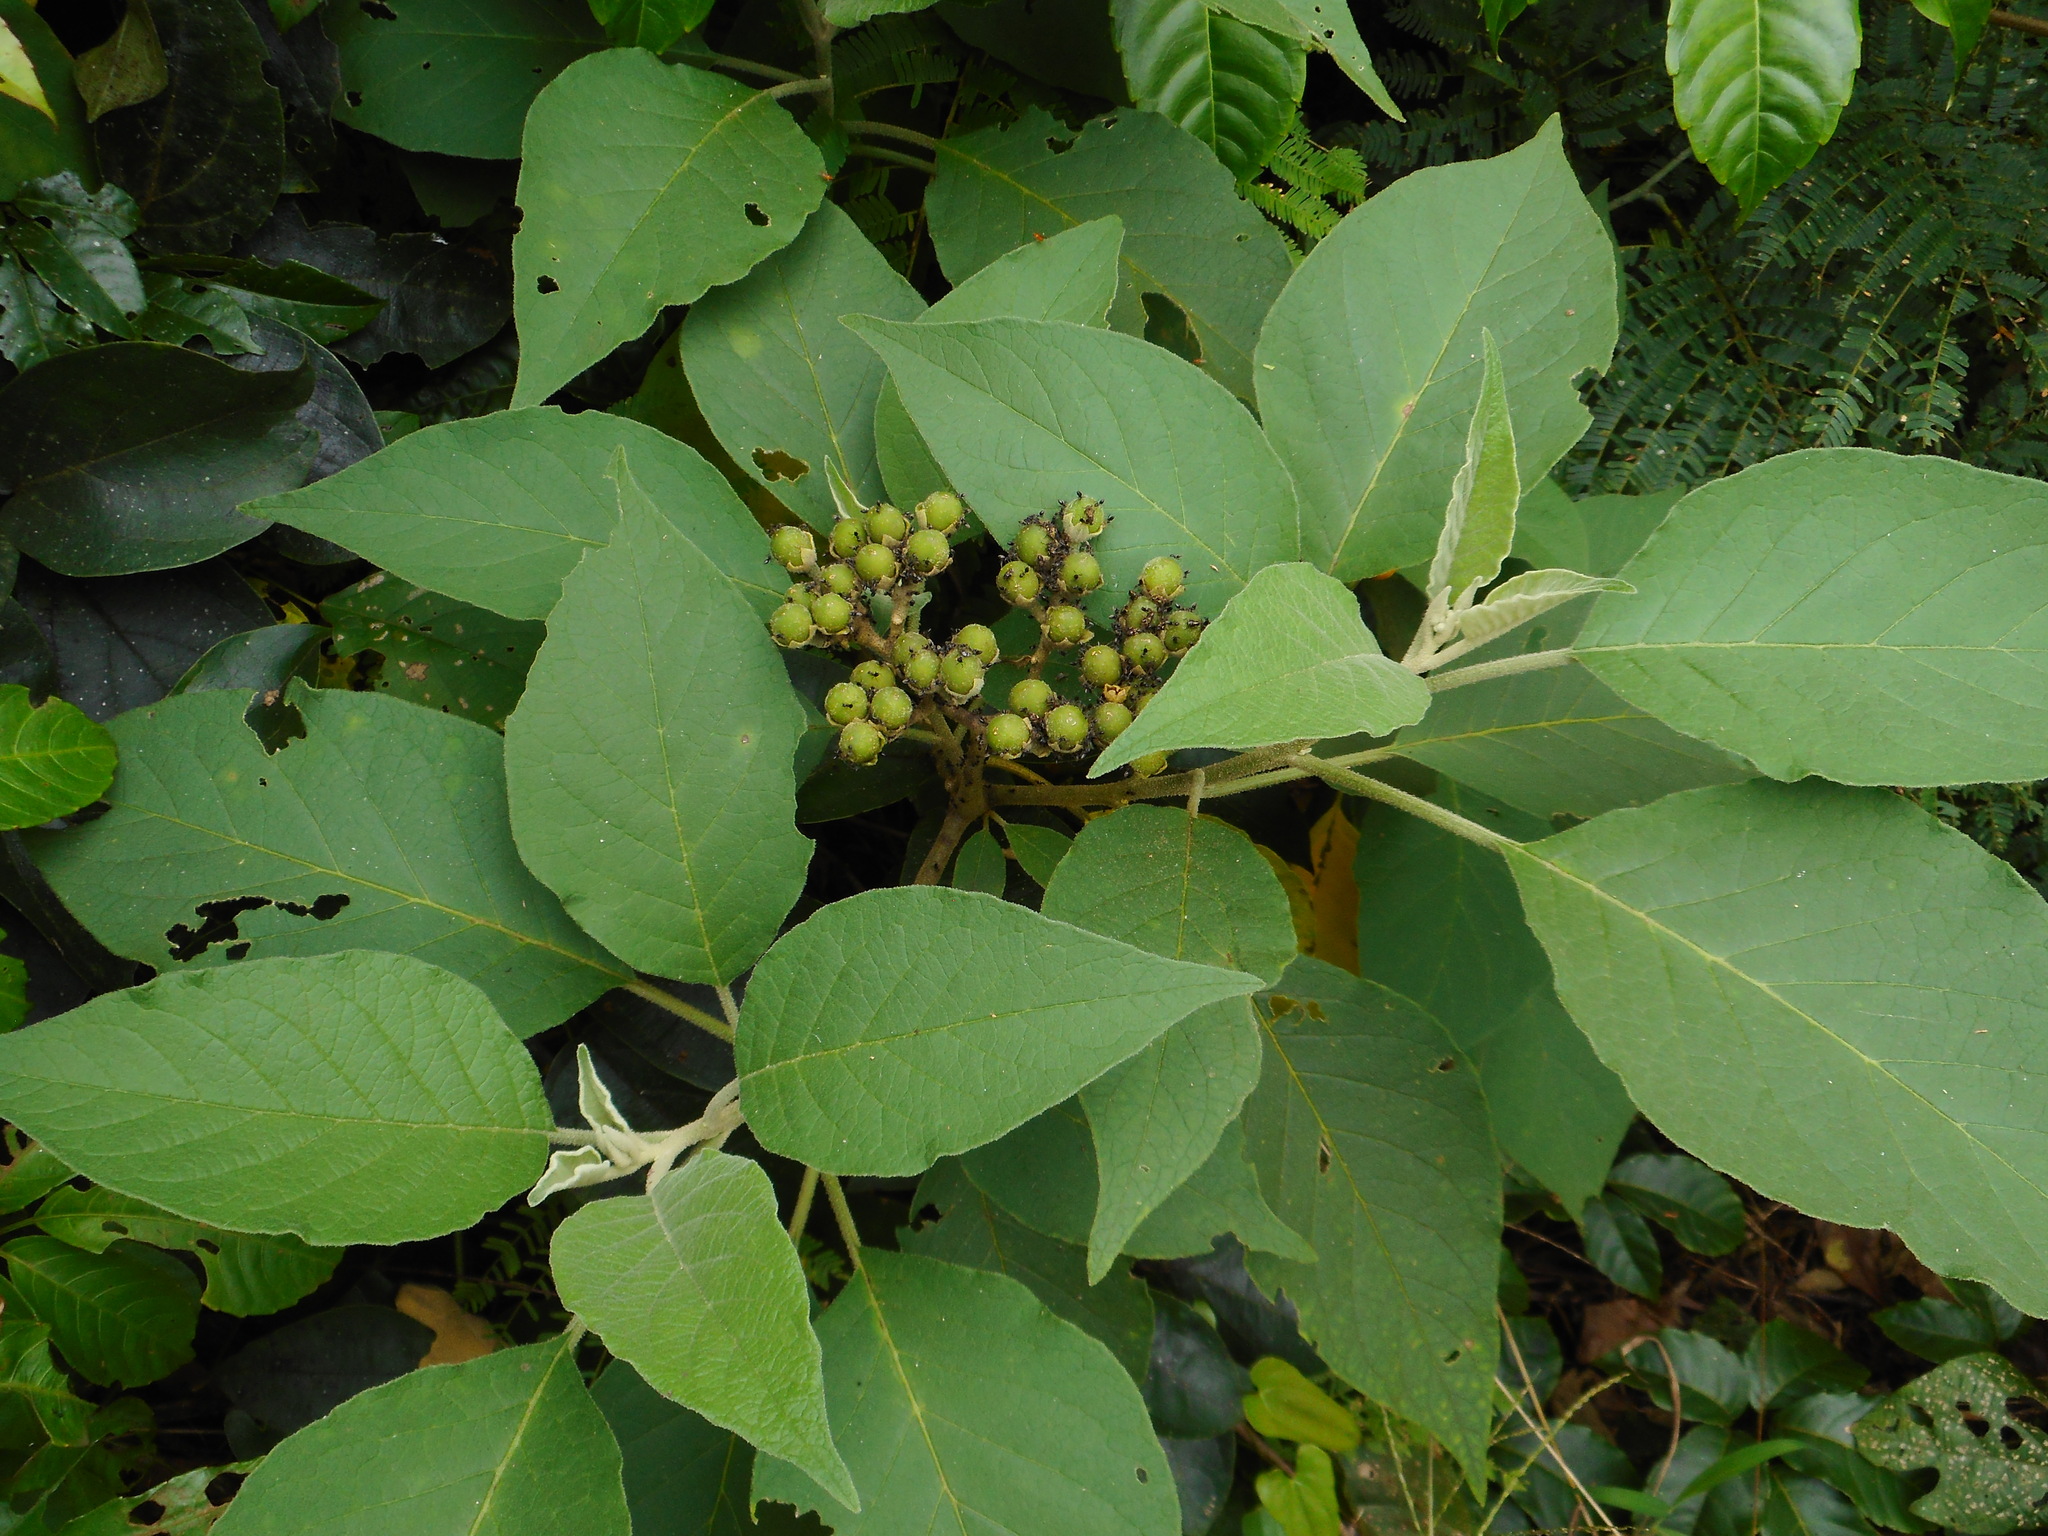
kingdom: Plantae
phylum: Tracheophyta
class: Magnoliopsida
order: Solanales
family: Solanaceae
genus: Solanum
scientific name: Solanum erianthum
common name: Tobacco-tree
